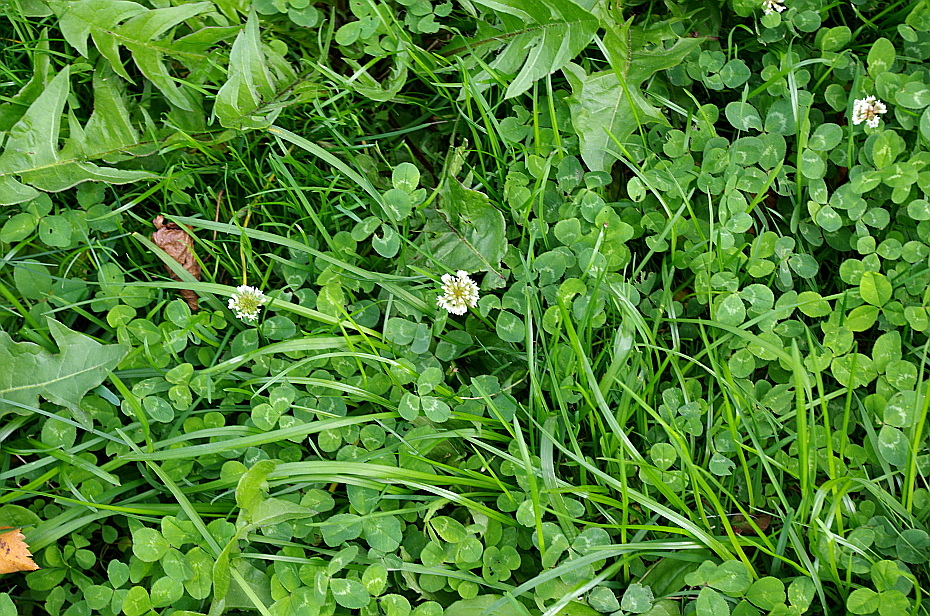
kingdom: Plantae
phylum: Tracheophyta
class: Magnoliopsida
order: Fabales
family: Fabaceae
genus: Trifolium
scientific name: Trifolium repens
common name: White clover
